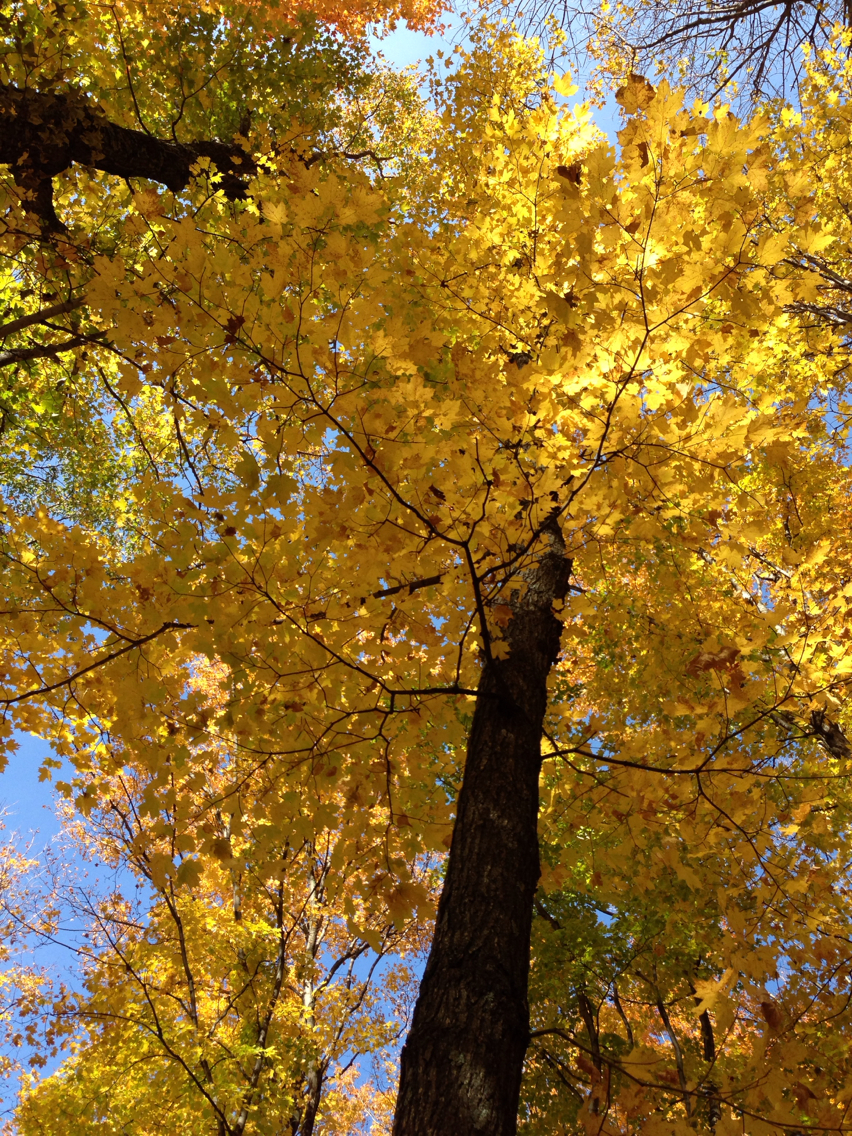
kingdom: Plantae
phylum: Tracheophyta
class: Magnoliopsida
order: Sapindales
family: Sapindaceae
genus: Acer
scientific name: Acer saccharum
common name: Sugar maple
